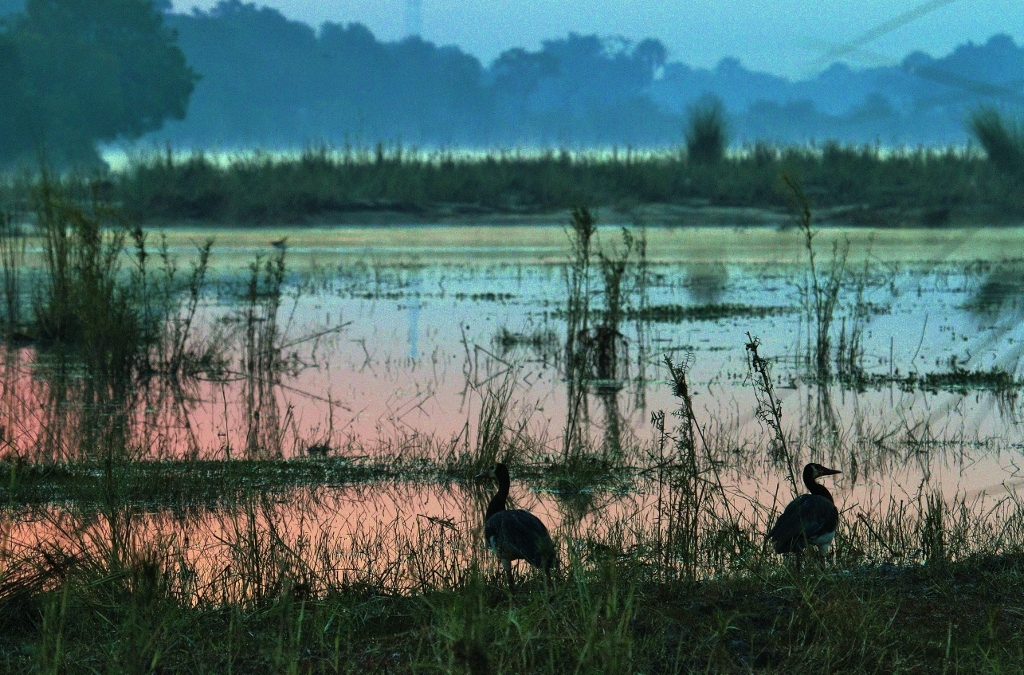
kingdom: Animalia
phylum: Chordata
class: Aves
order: Anseriformes
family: Anatidae
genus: Plectropterus
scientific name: Plectropterus gambensis
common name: Spur-winged goose
